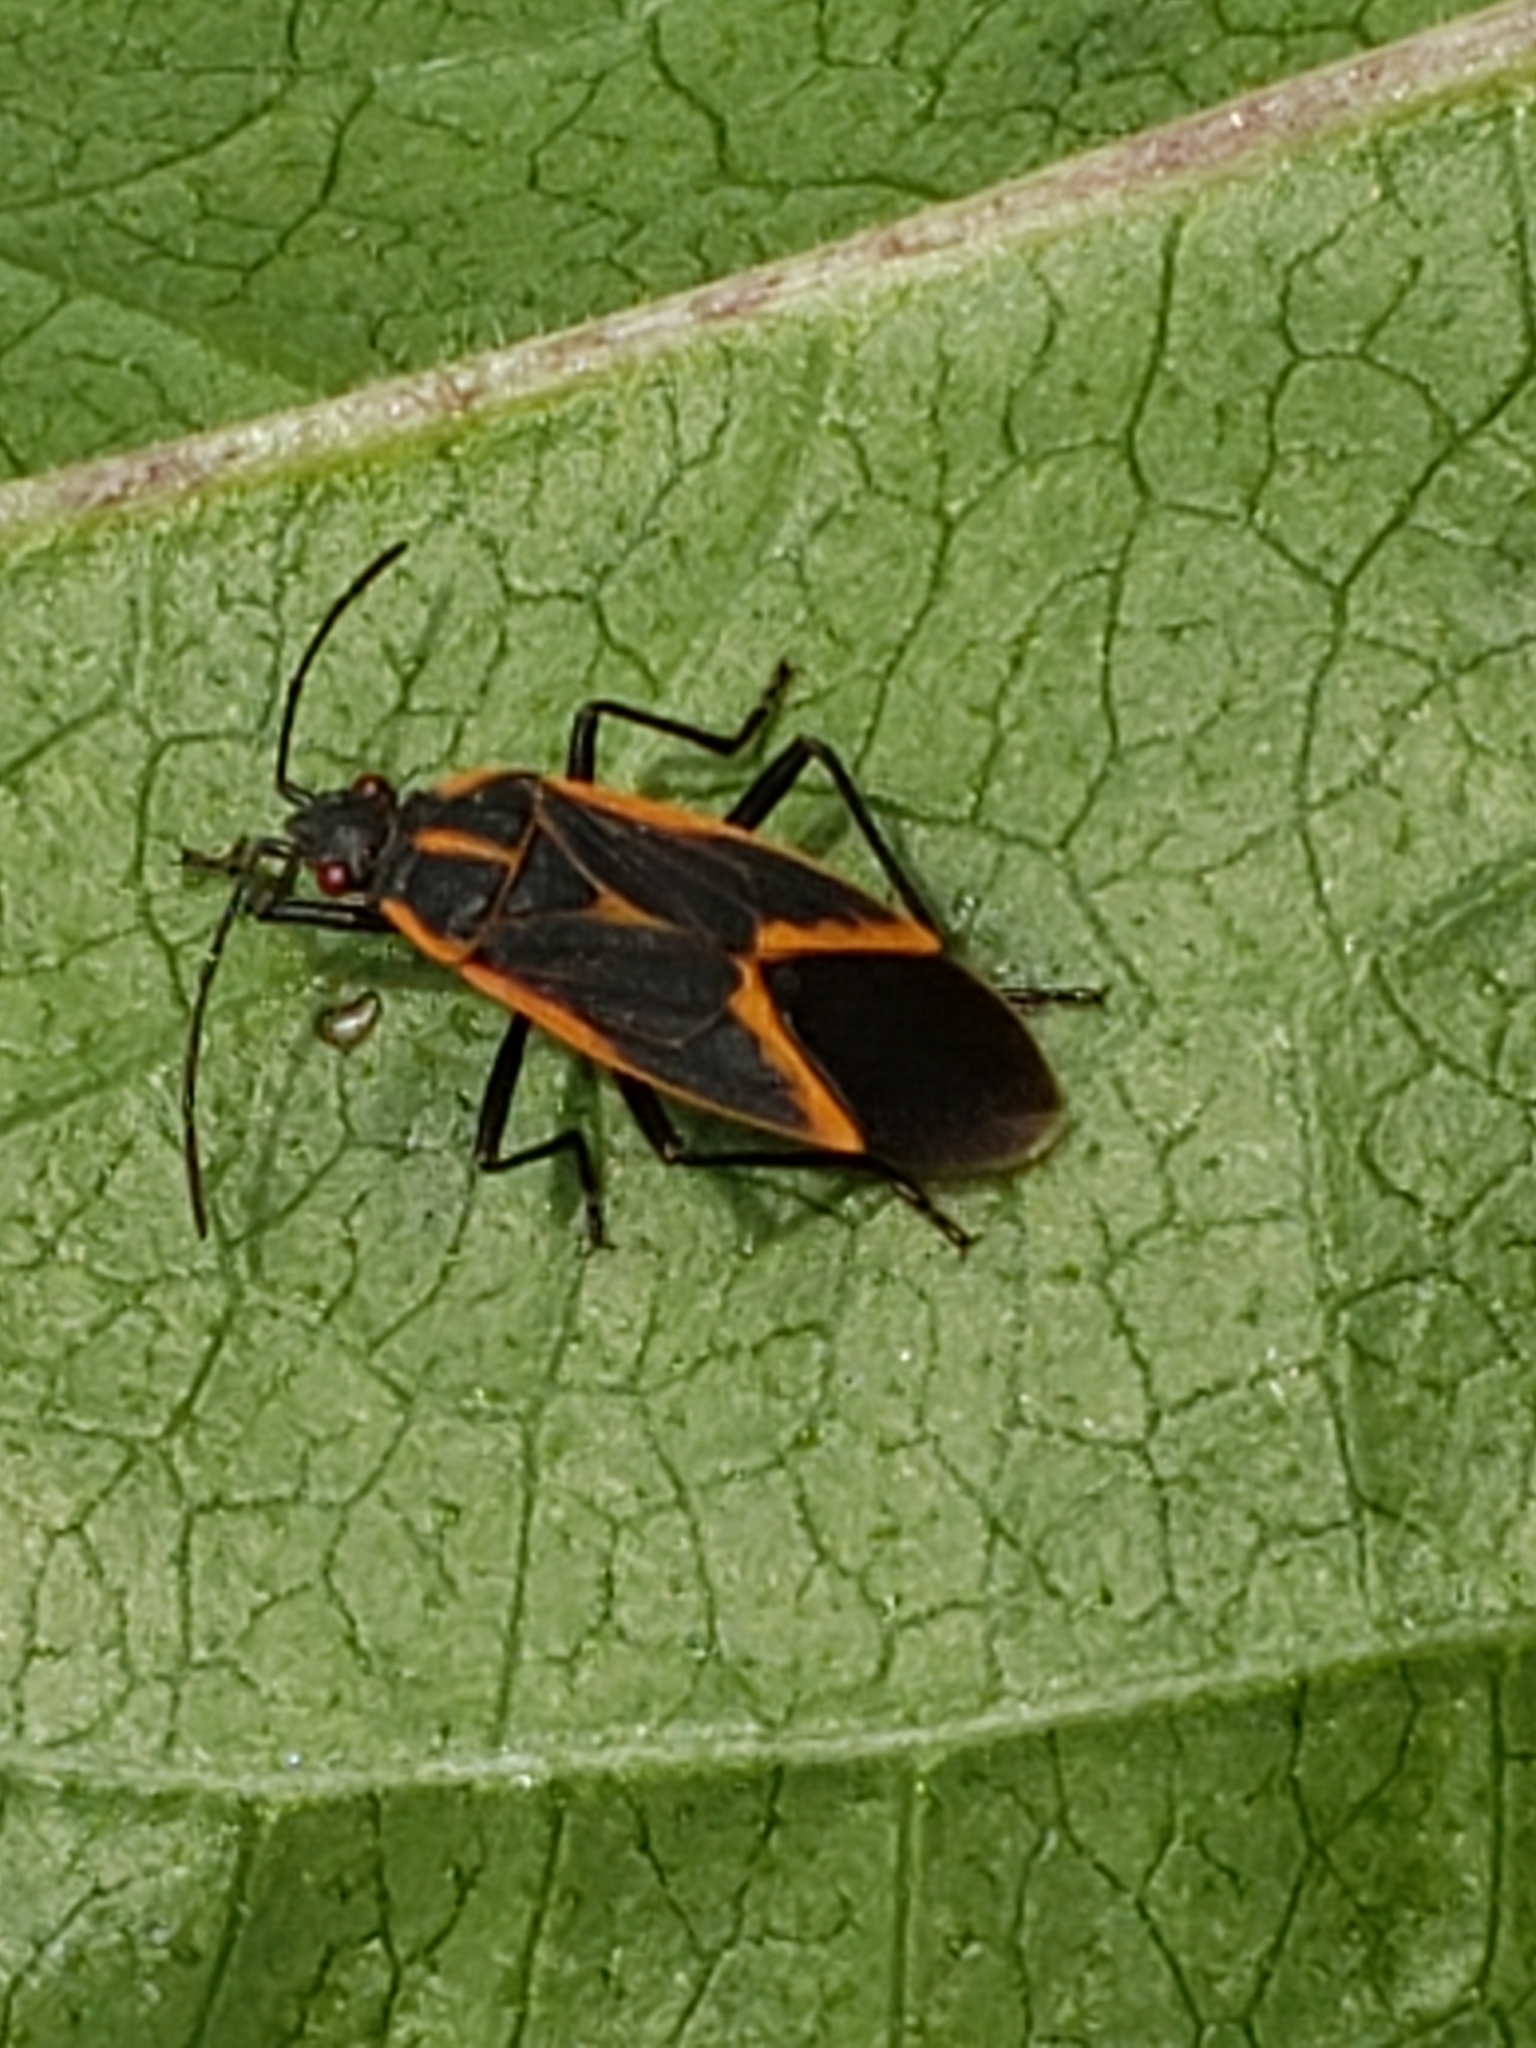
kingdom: Animalia
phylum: Arthropoda
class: Insecta
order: Hemiptera
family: Rhopalidae
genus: Boisea
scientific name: Boisea trivittata
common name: Boxelder bug
